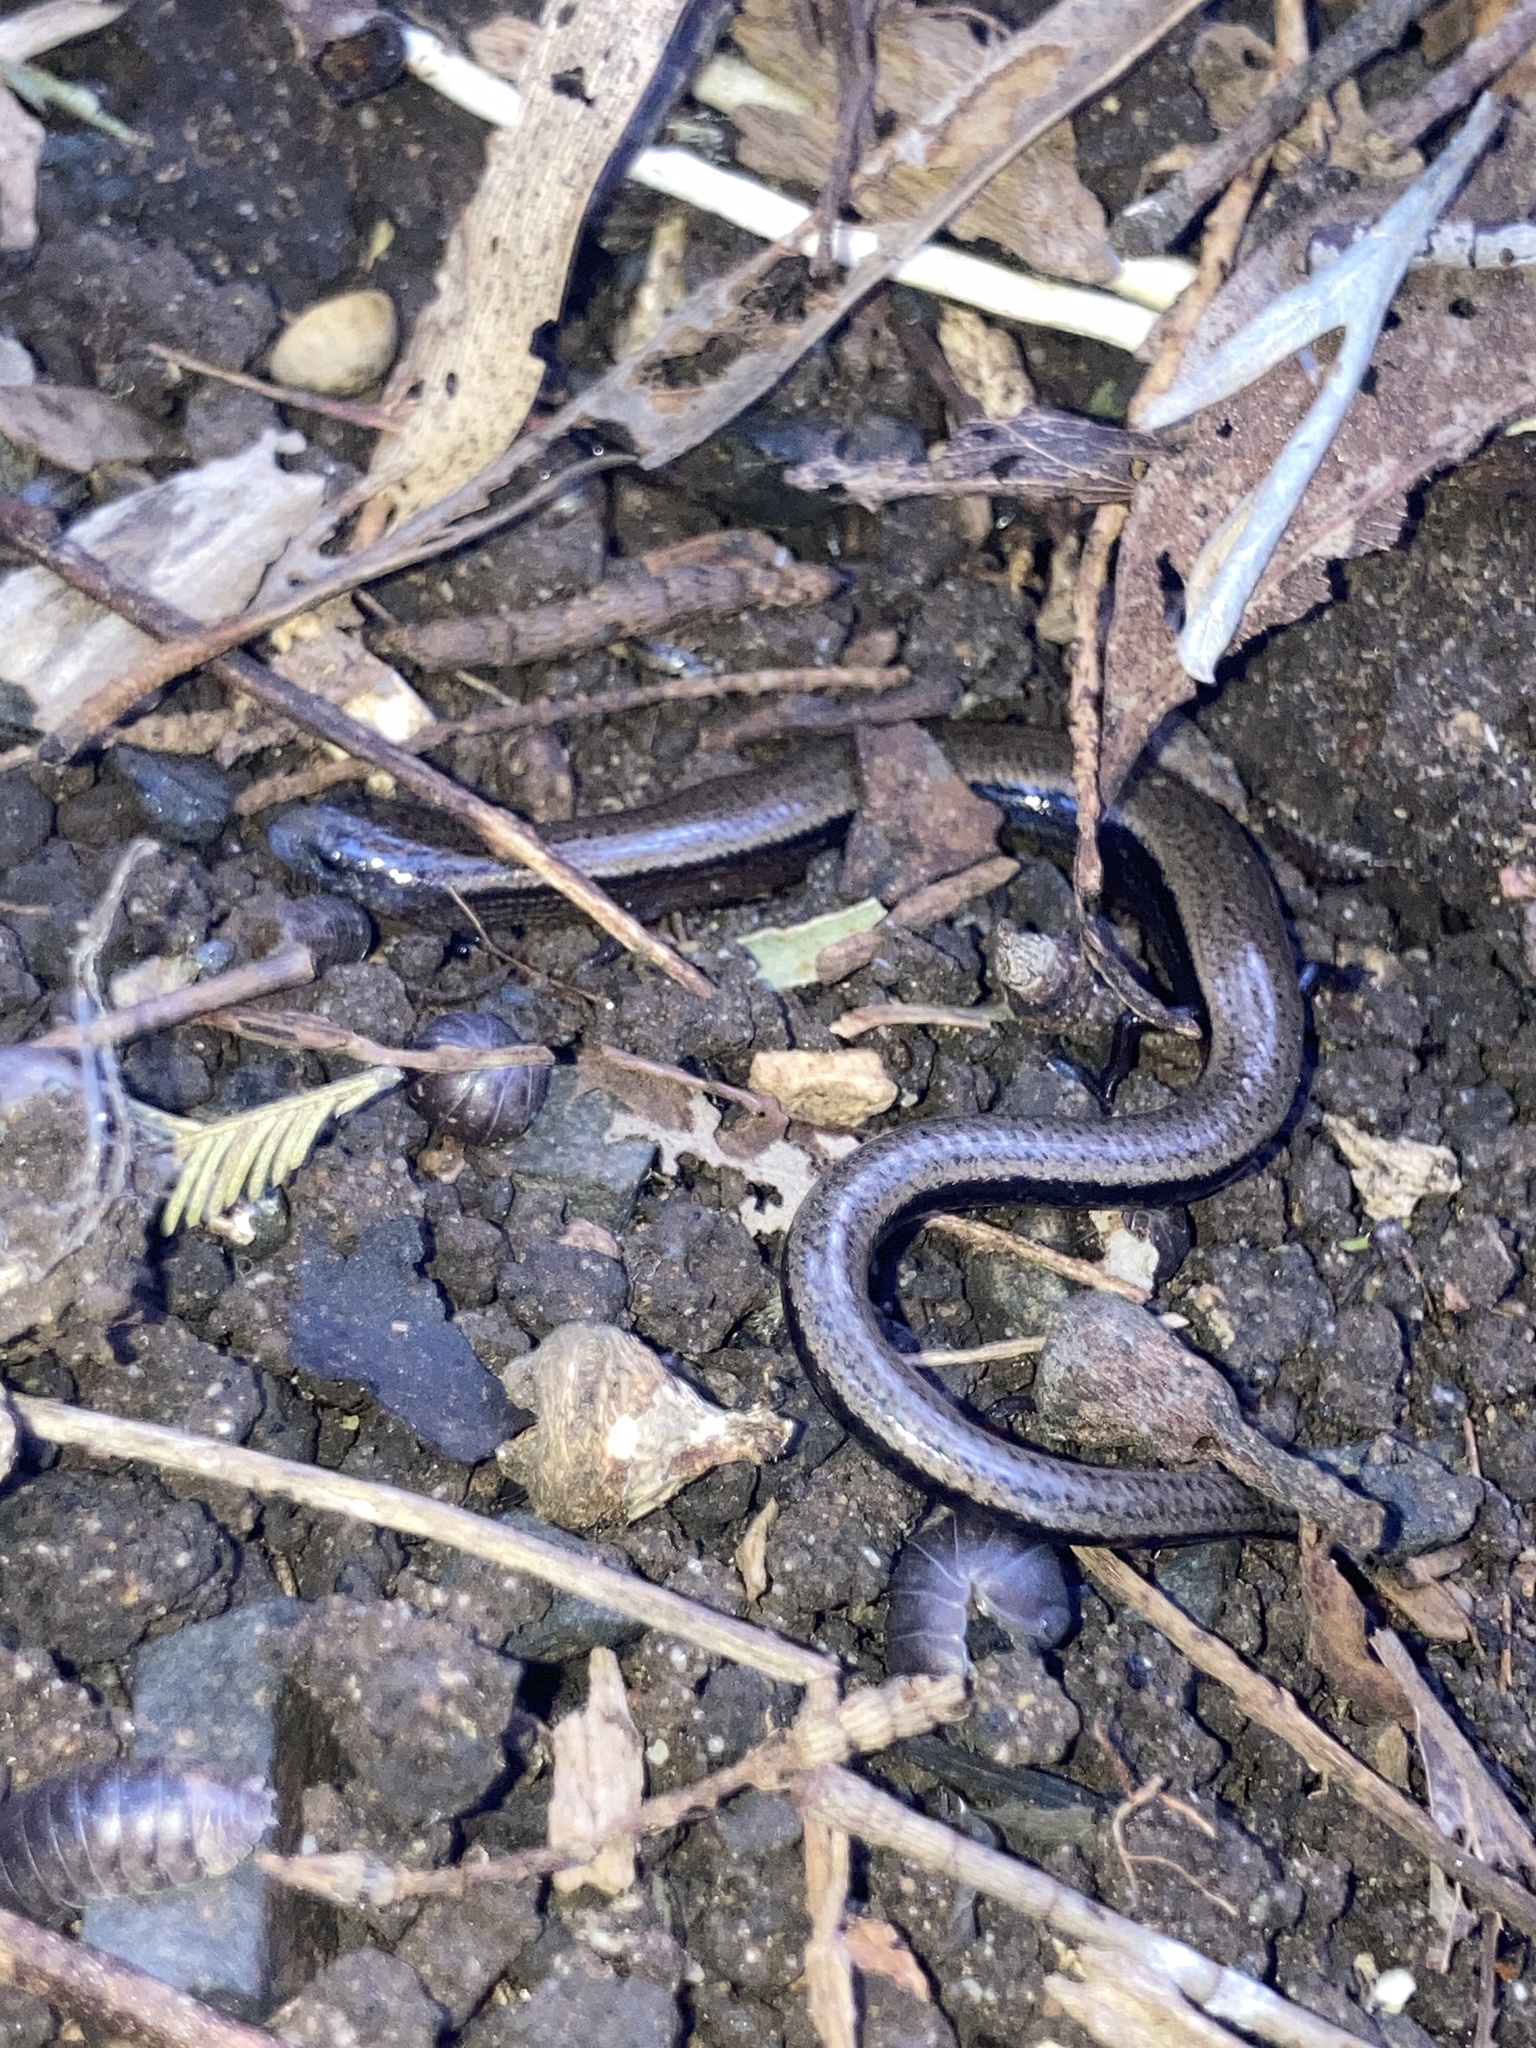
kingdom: Animalia
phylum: Chordata
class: Squamata
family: Scincidae
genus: Saiphos
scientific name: Saiphos equalis
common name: Three-toed skink
